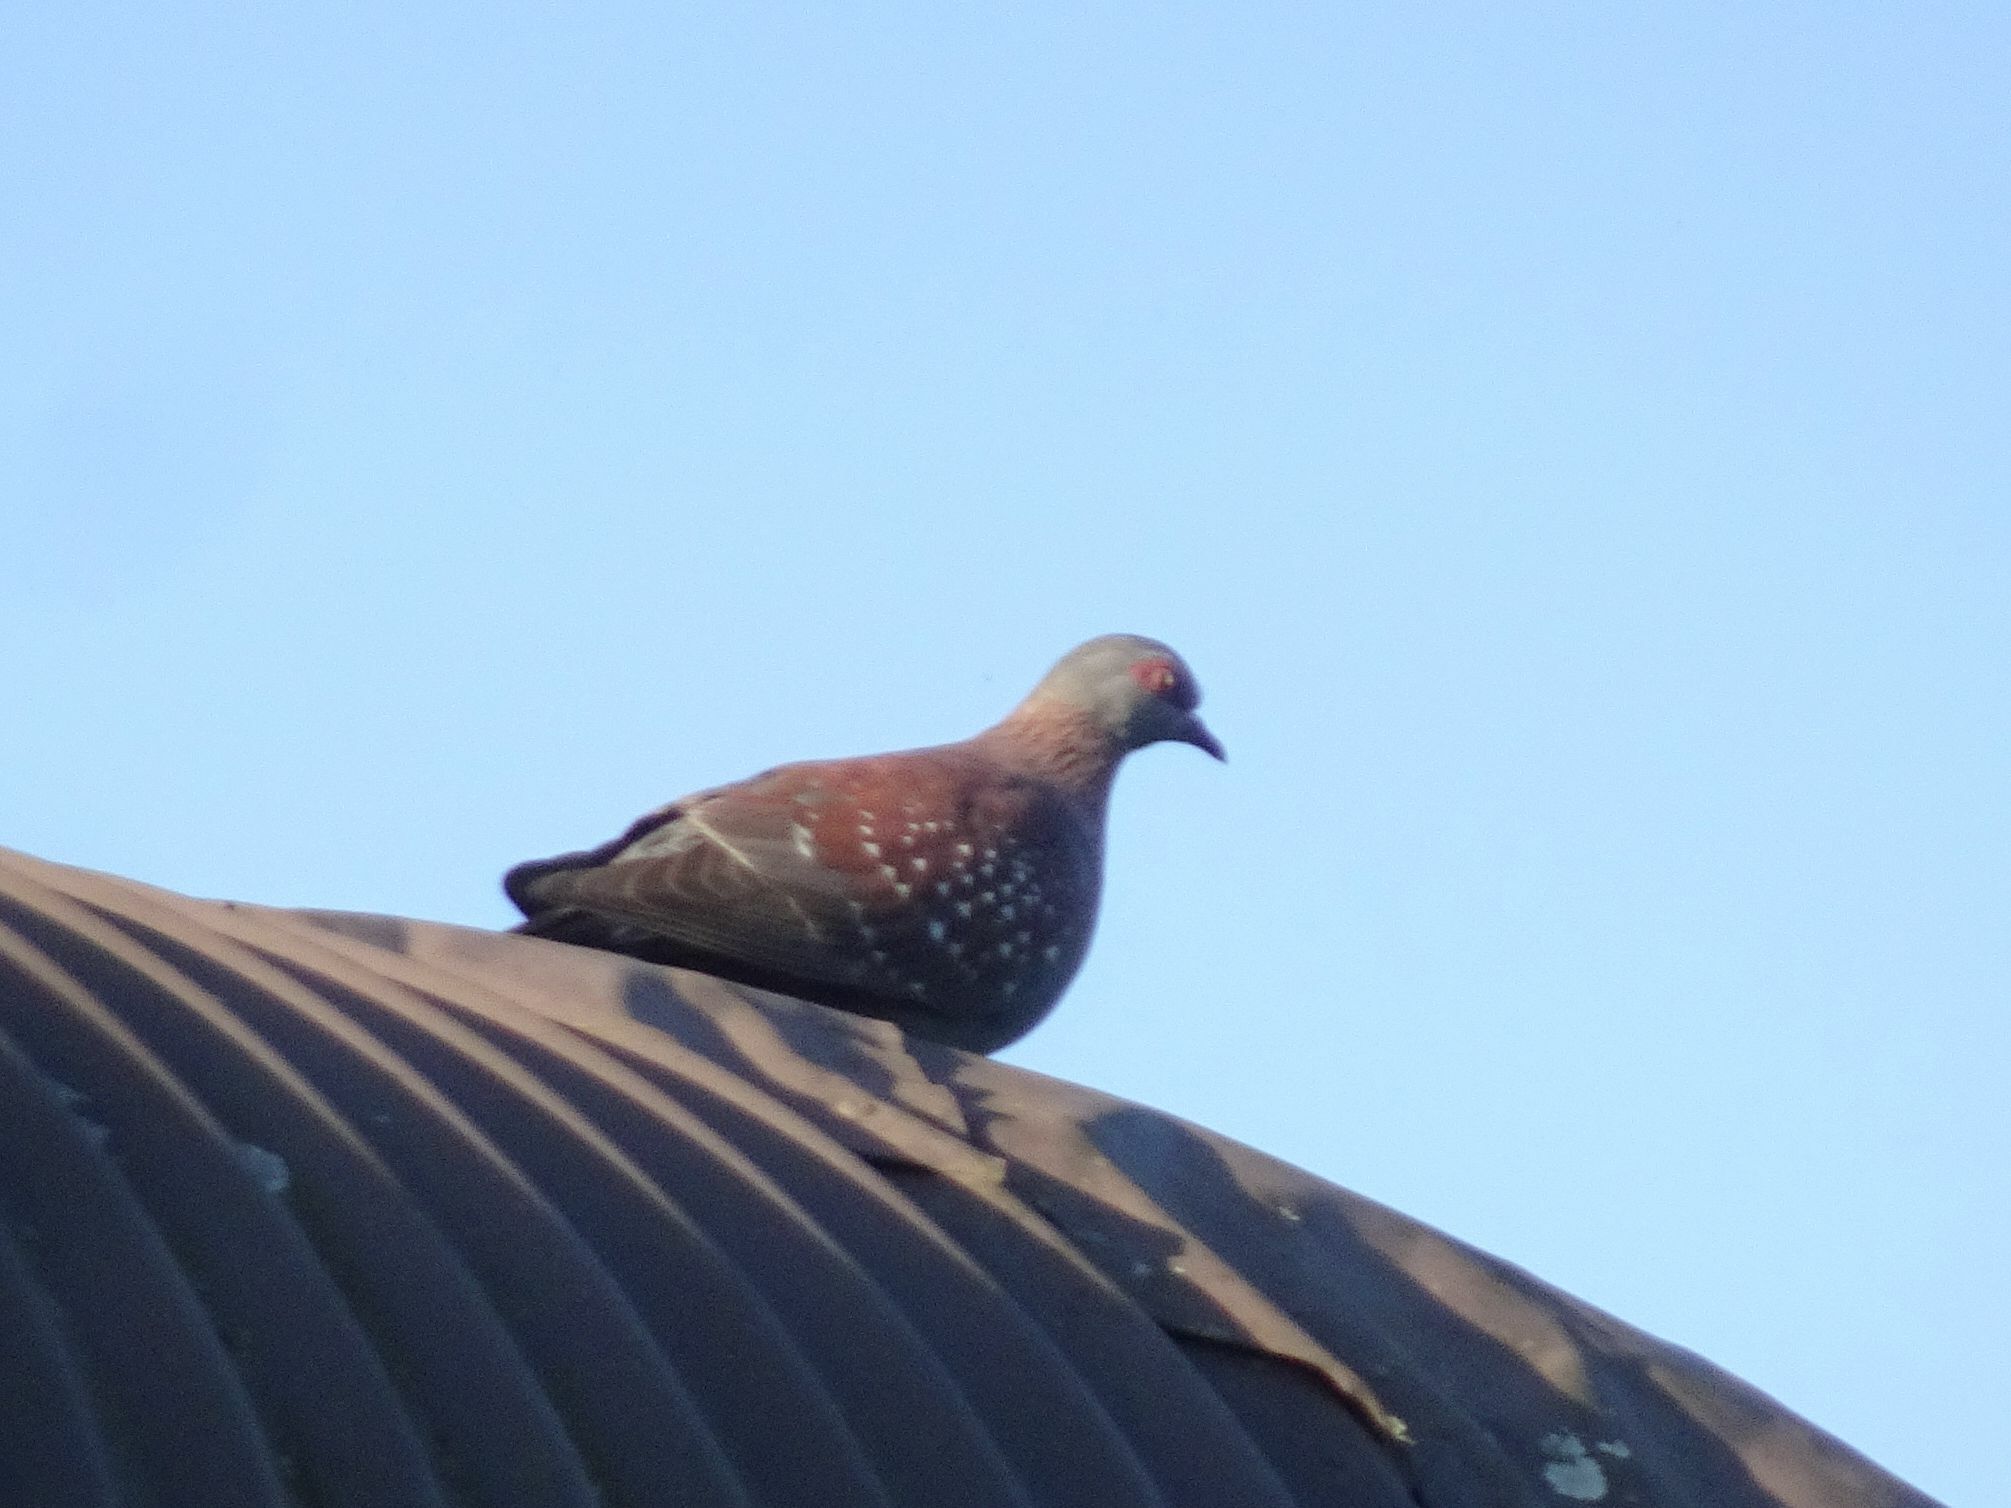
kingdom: Animalia
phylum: Chordata
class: Aves
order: Columbiformes
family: Columbidae
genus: Columba
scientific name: Columba guinea
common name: Speckled pigeon
